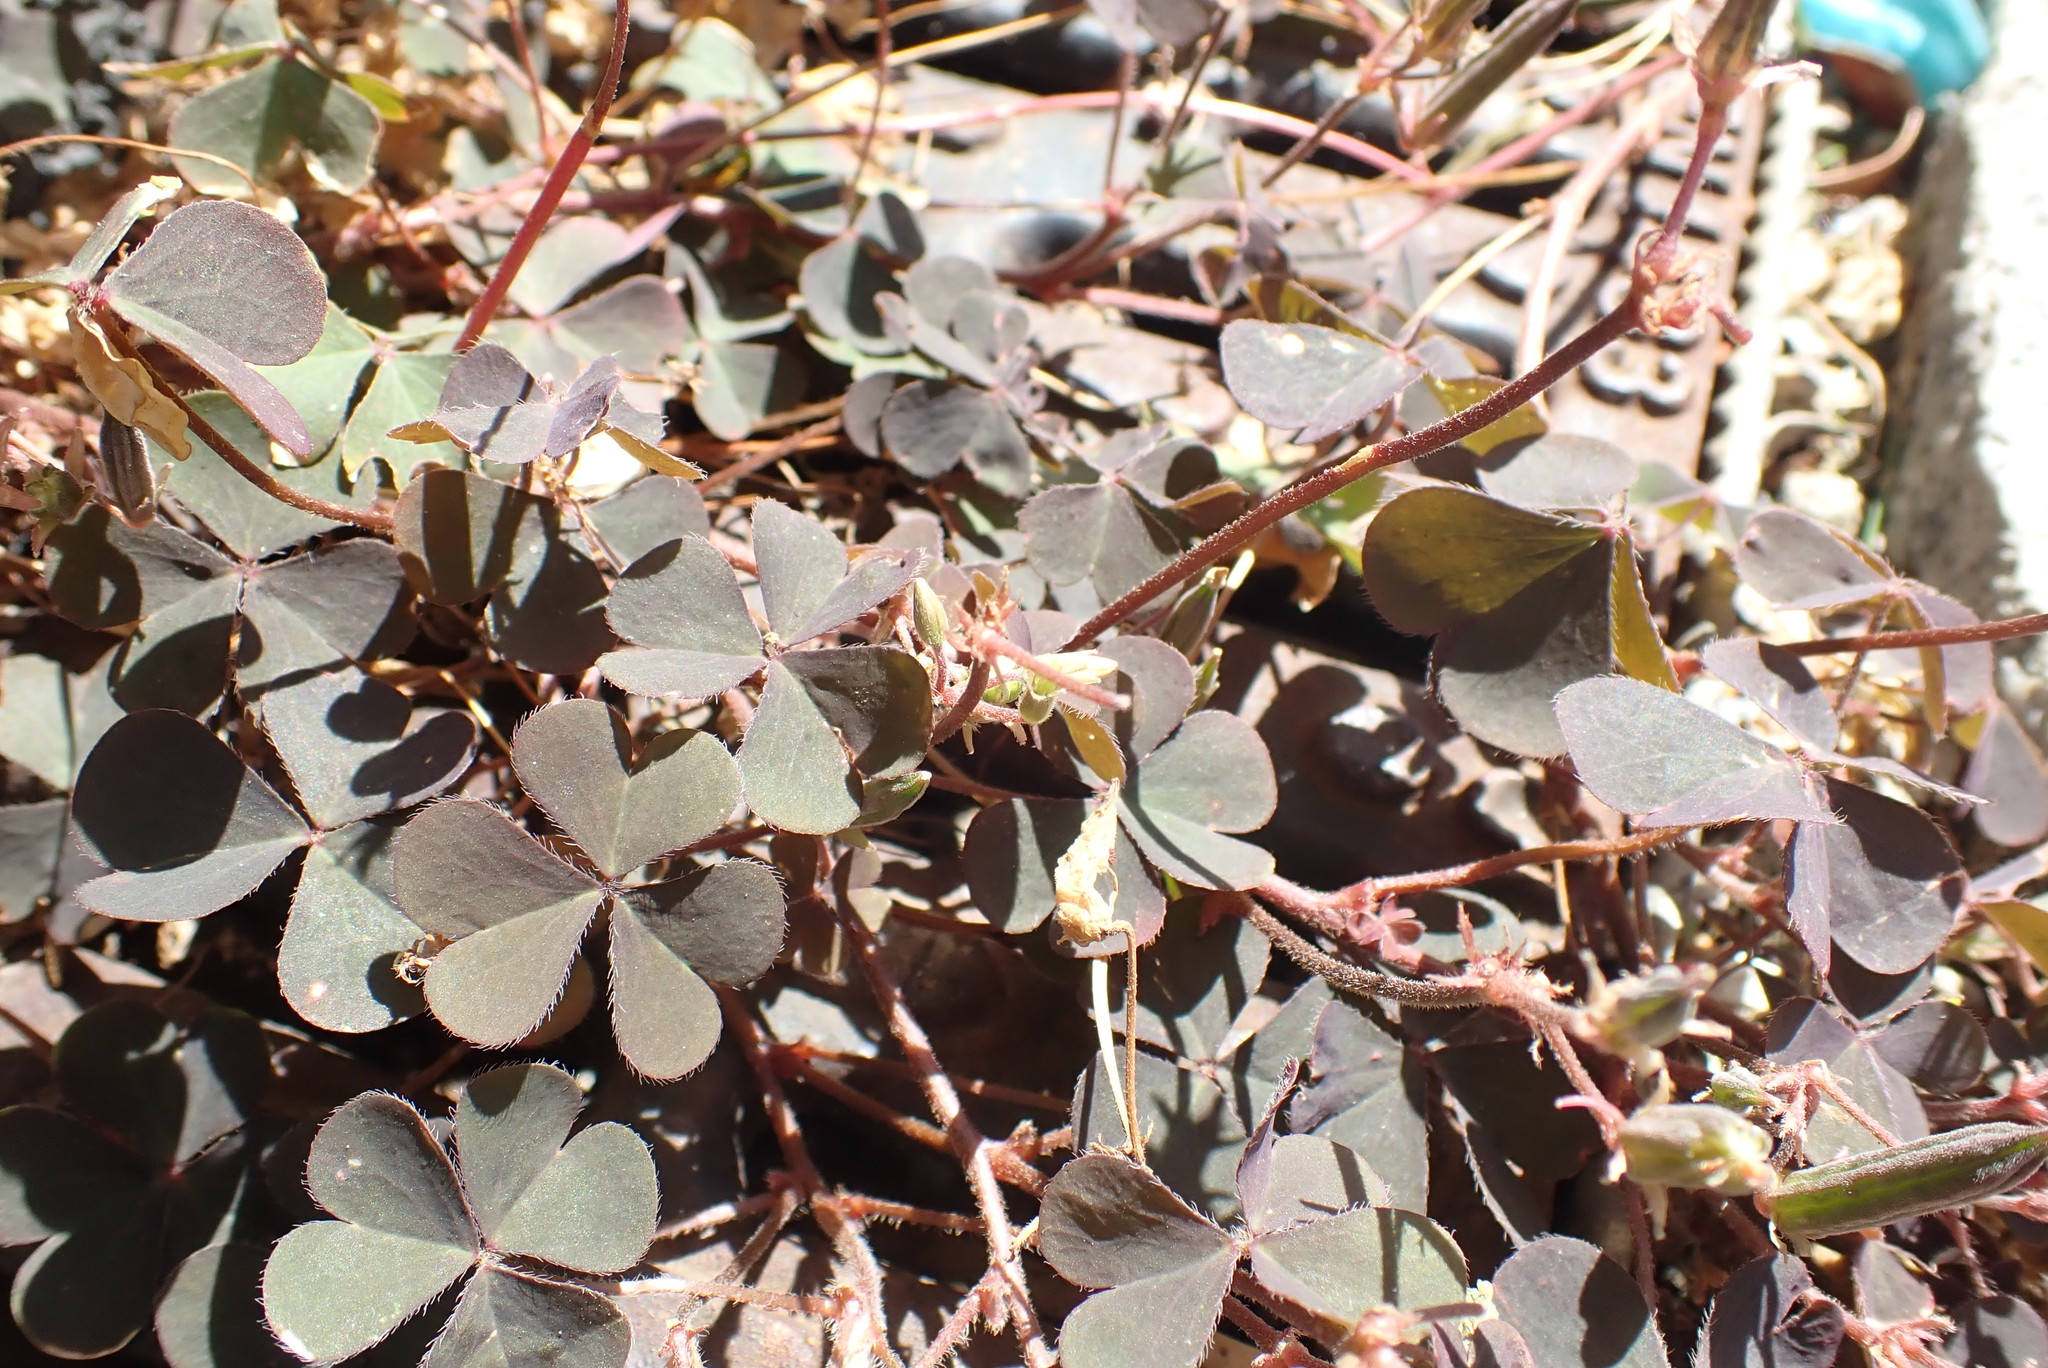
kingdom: Plantae
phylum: Tracheophyta
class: Magnoliopsida
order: Oxalidales
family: Oxalidaceae
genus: Oxalis
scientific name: Oxalis corniculata
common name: Procumbent yellow-sorrel
